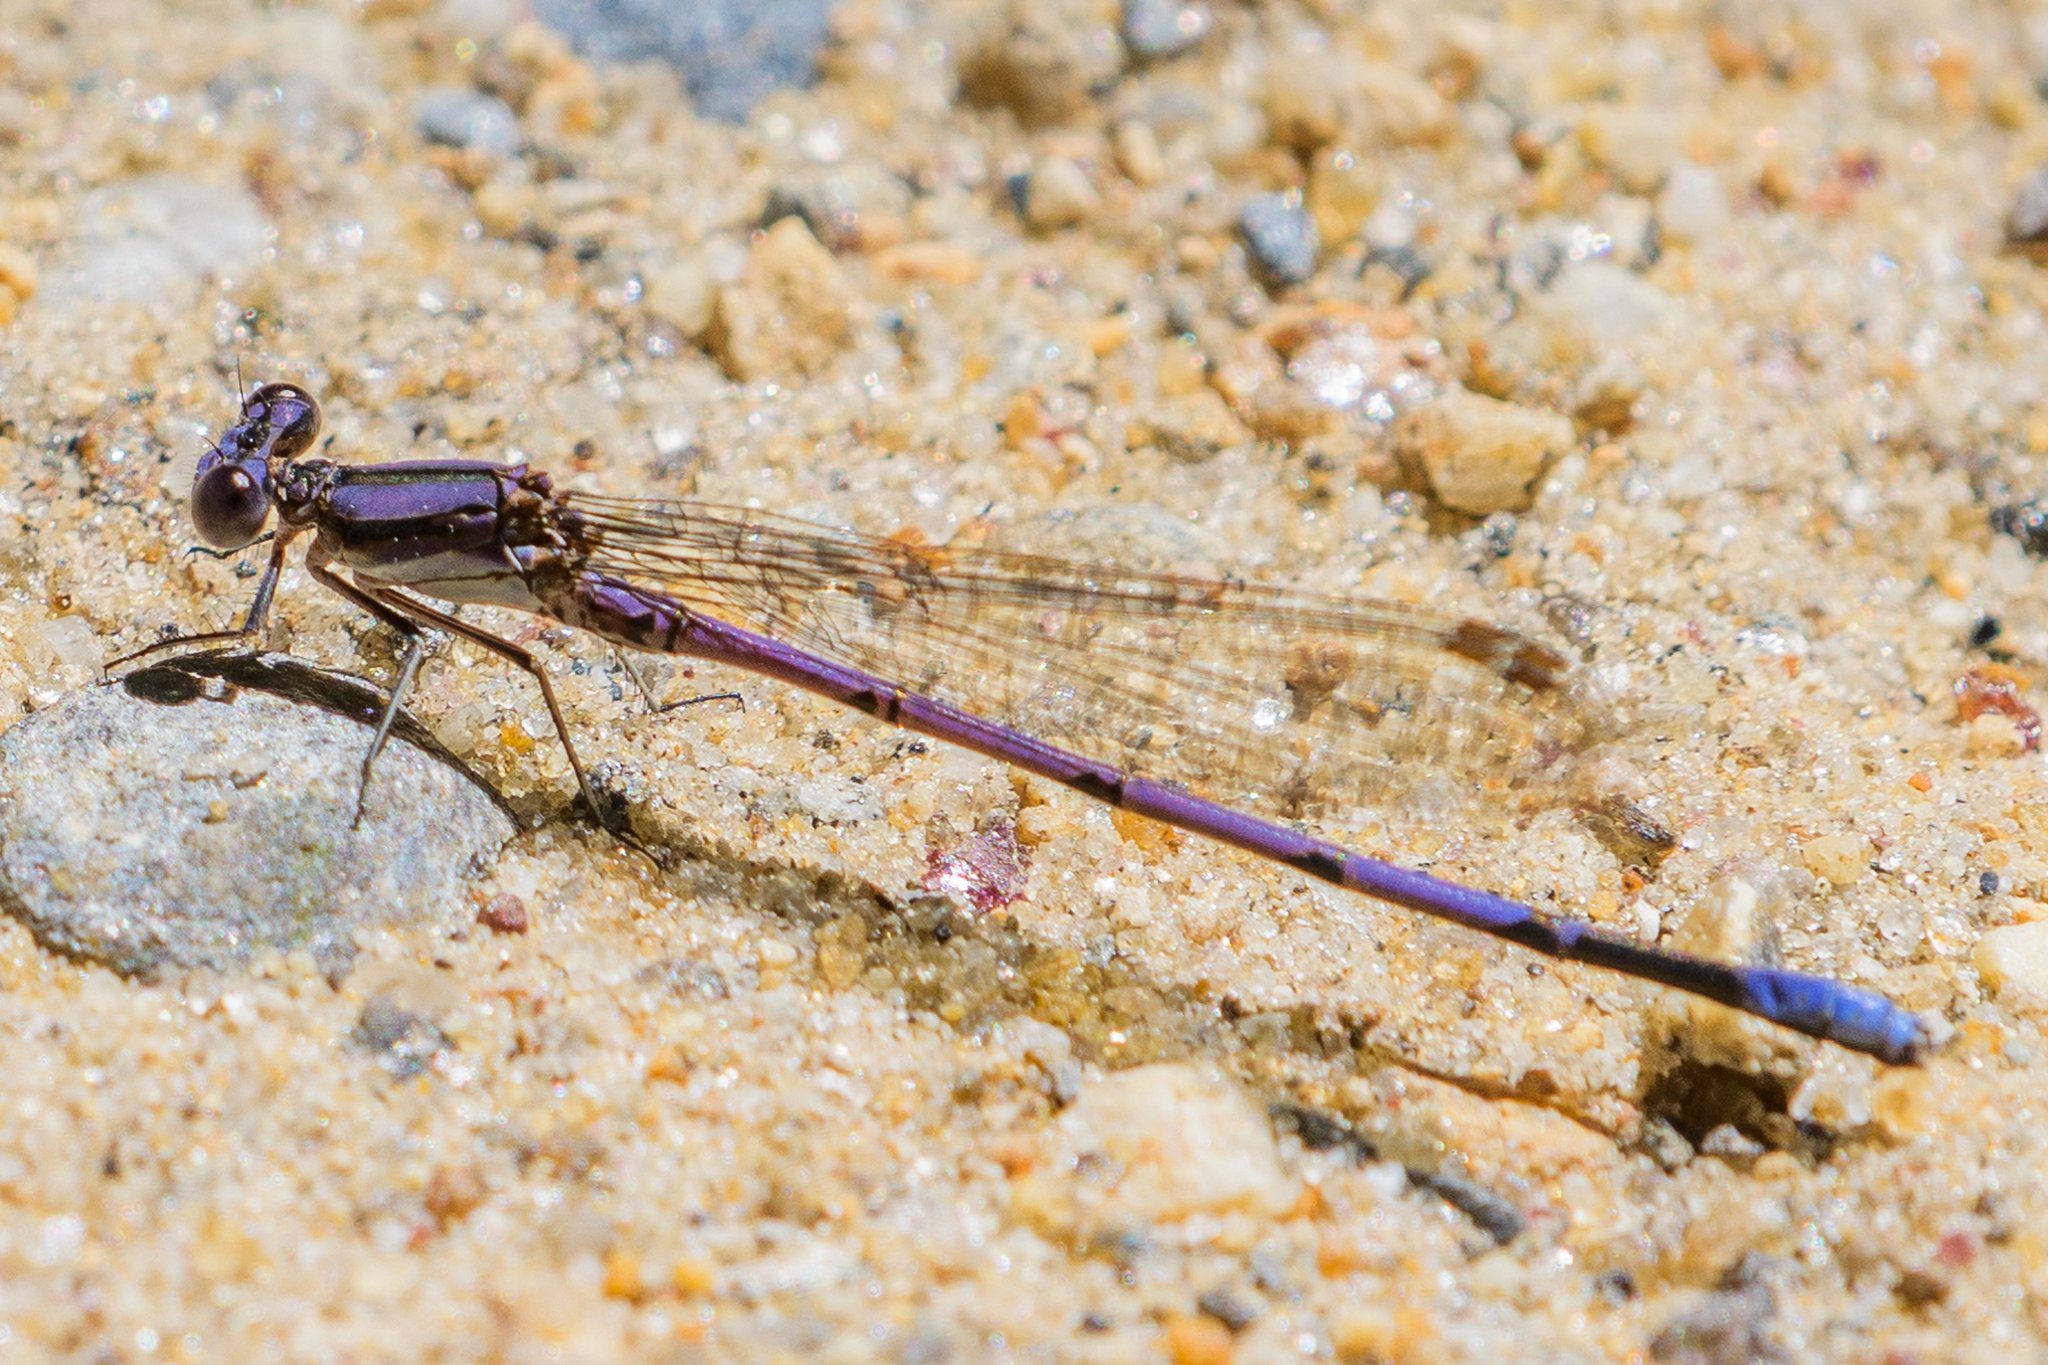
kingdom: Animalia
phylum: Arthropoda
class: Insecta
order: Odonata
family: Coenagrionidae
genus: Argia
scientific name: Argia fumipennis
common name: Variable dancer
